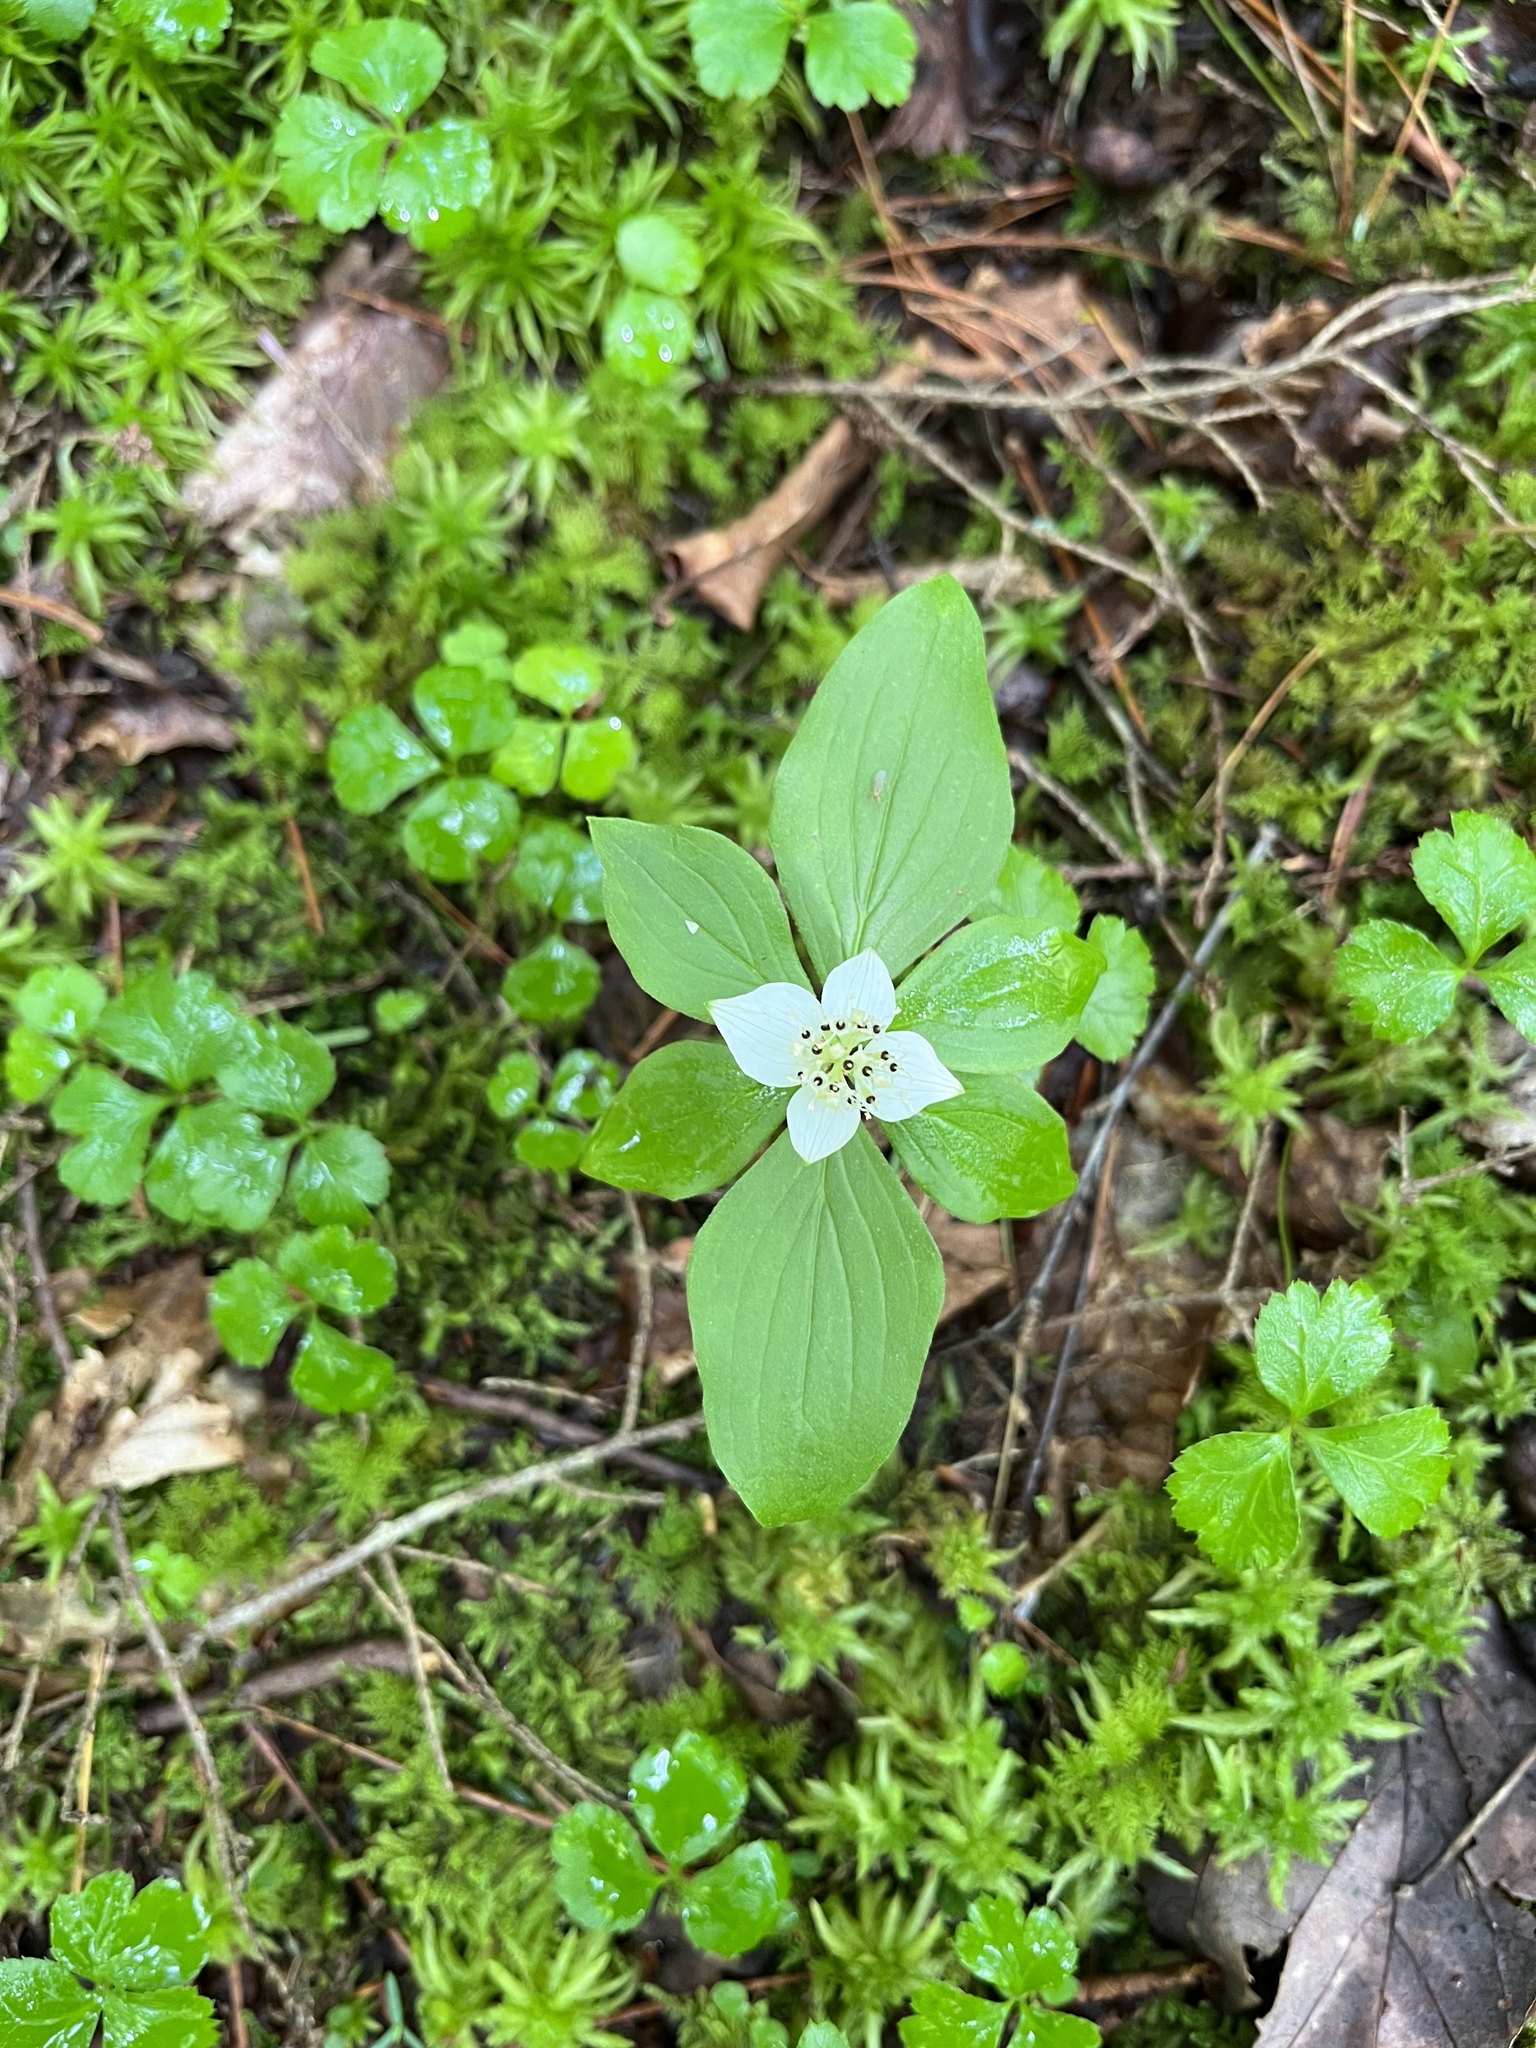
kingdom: Plantae
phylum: Tracheophyta
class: Magnoliopsida
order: Cornales
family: Cornaceae
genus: Cornus
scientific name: Cornus canadensis
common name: Creeping dogwood
